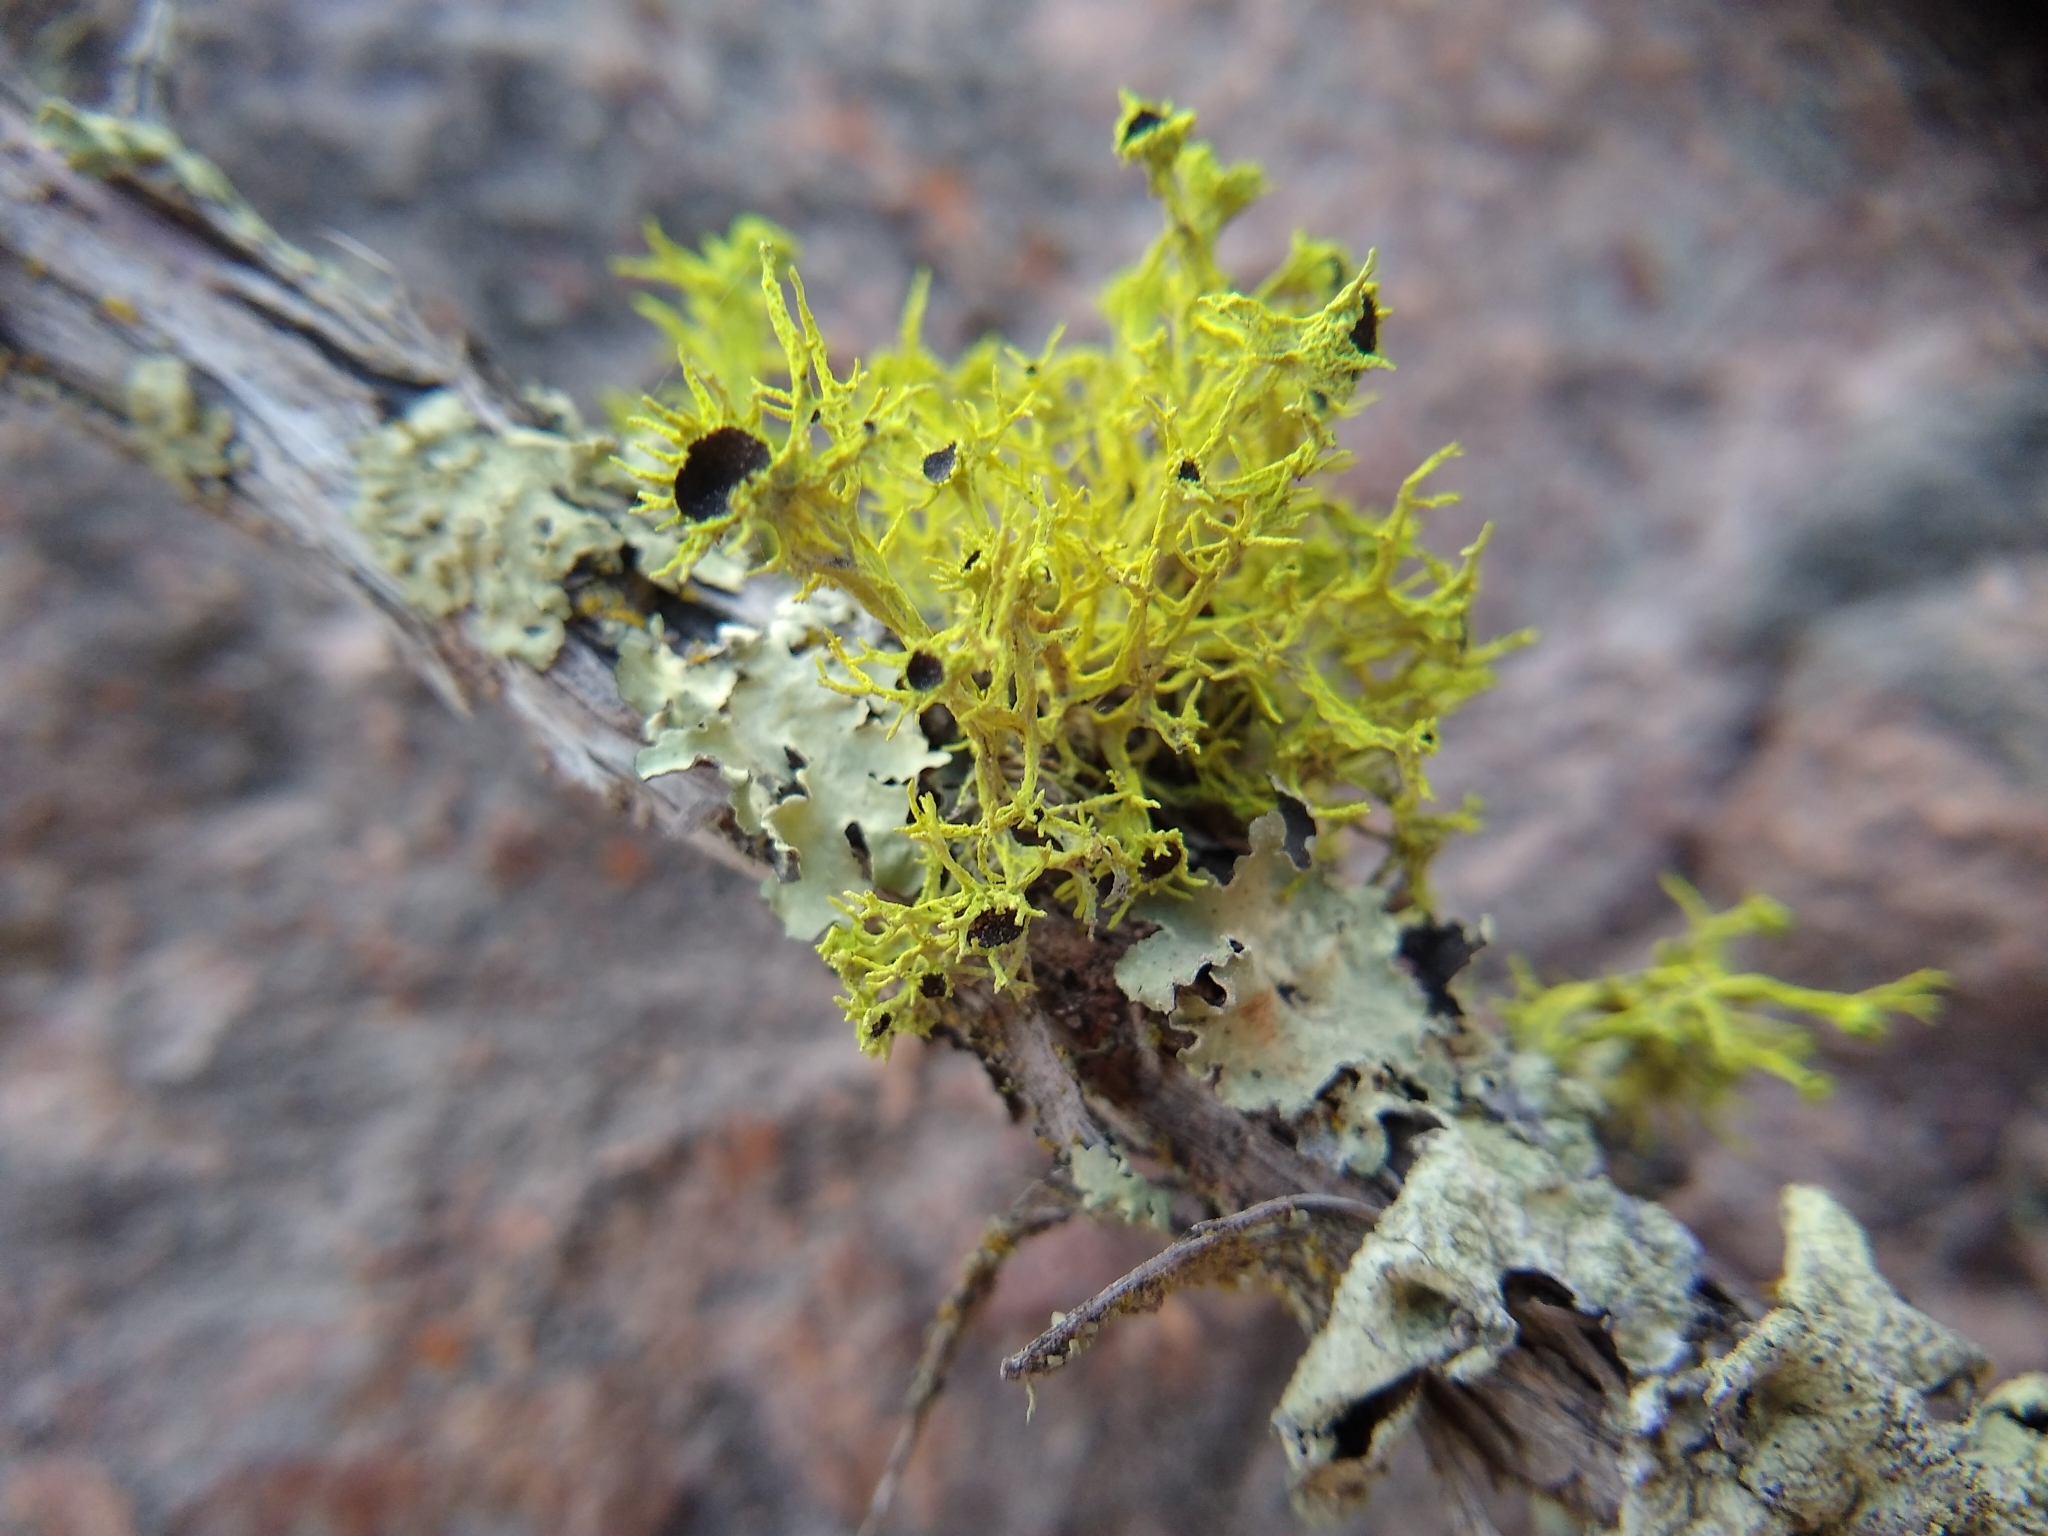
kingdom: Fungi
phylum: Ascomycota
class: Lecanoromycetes
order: Lecanorales
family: Parmeliaceae
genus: Letharia
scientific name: Letharia columbiana
